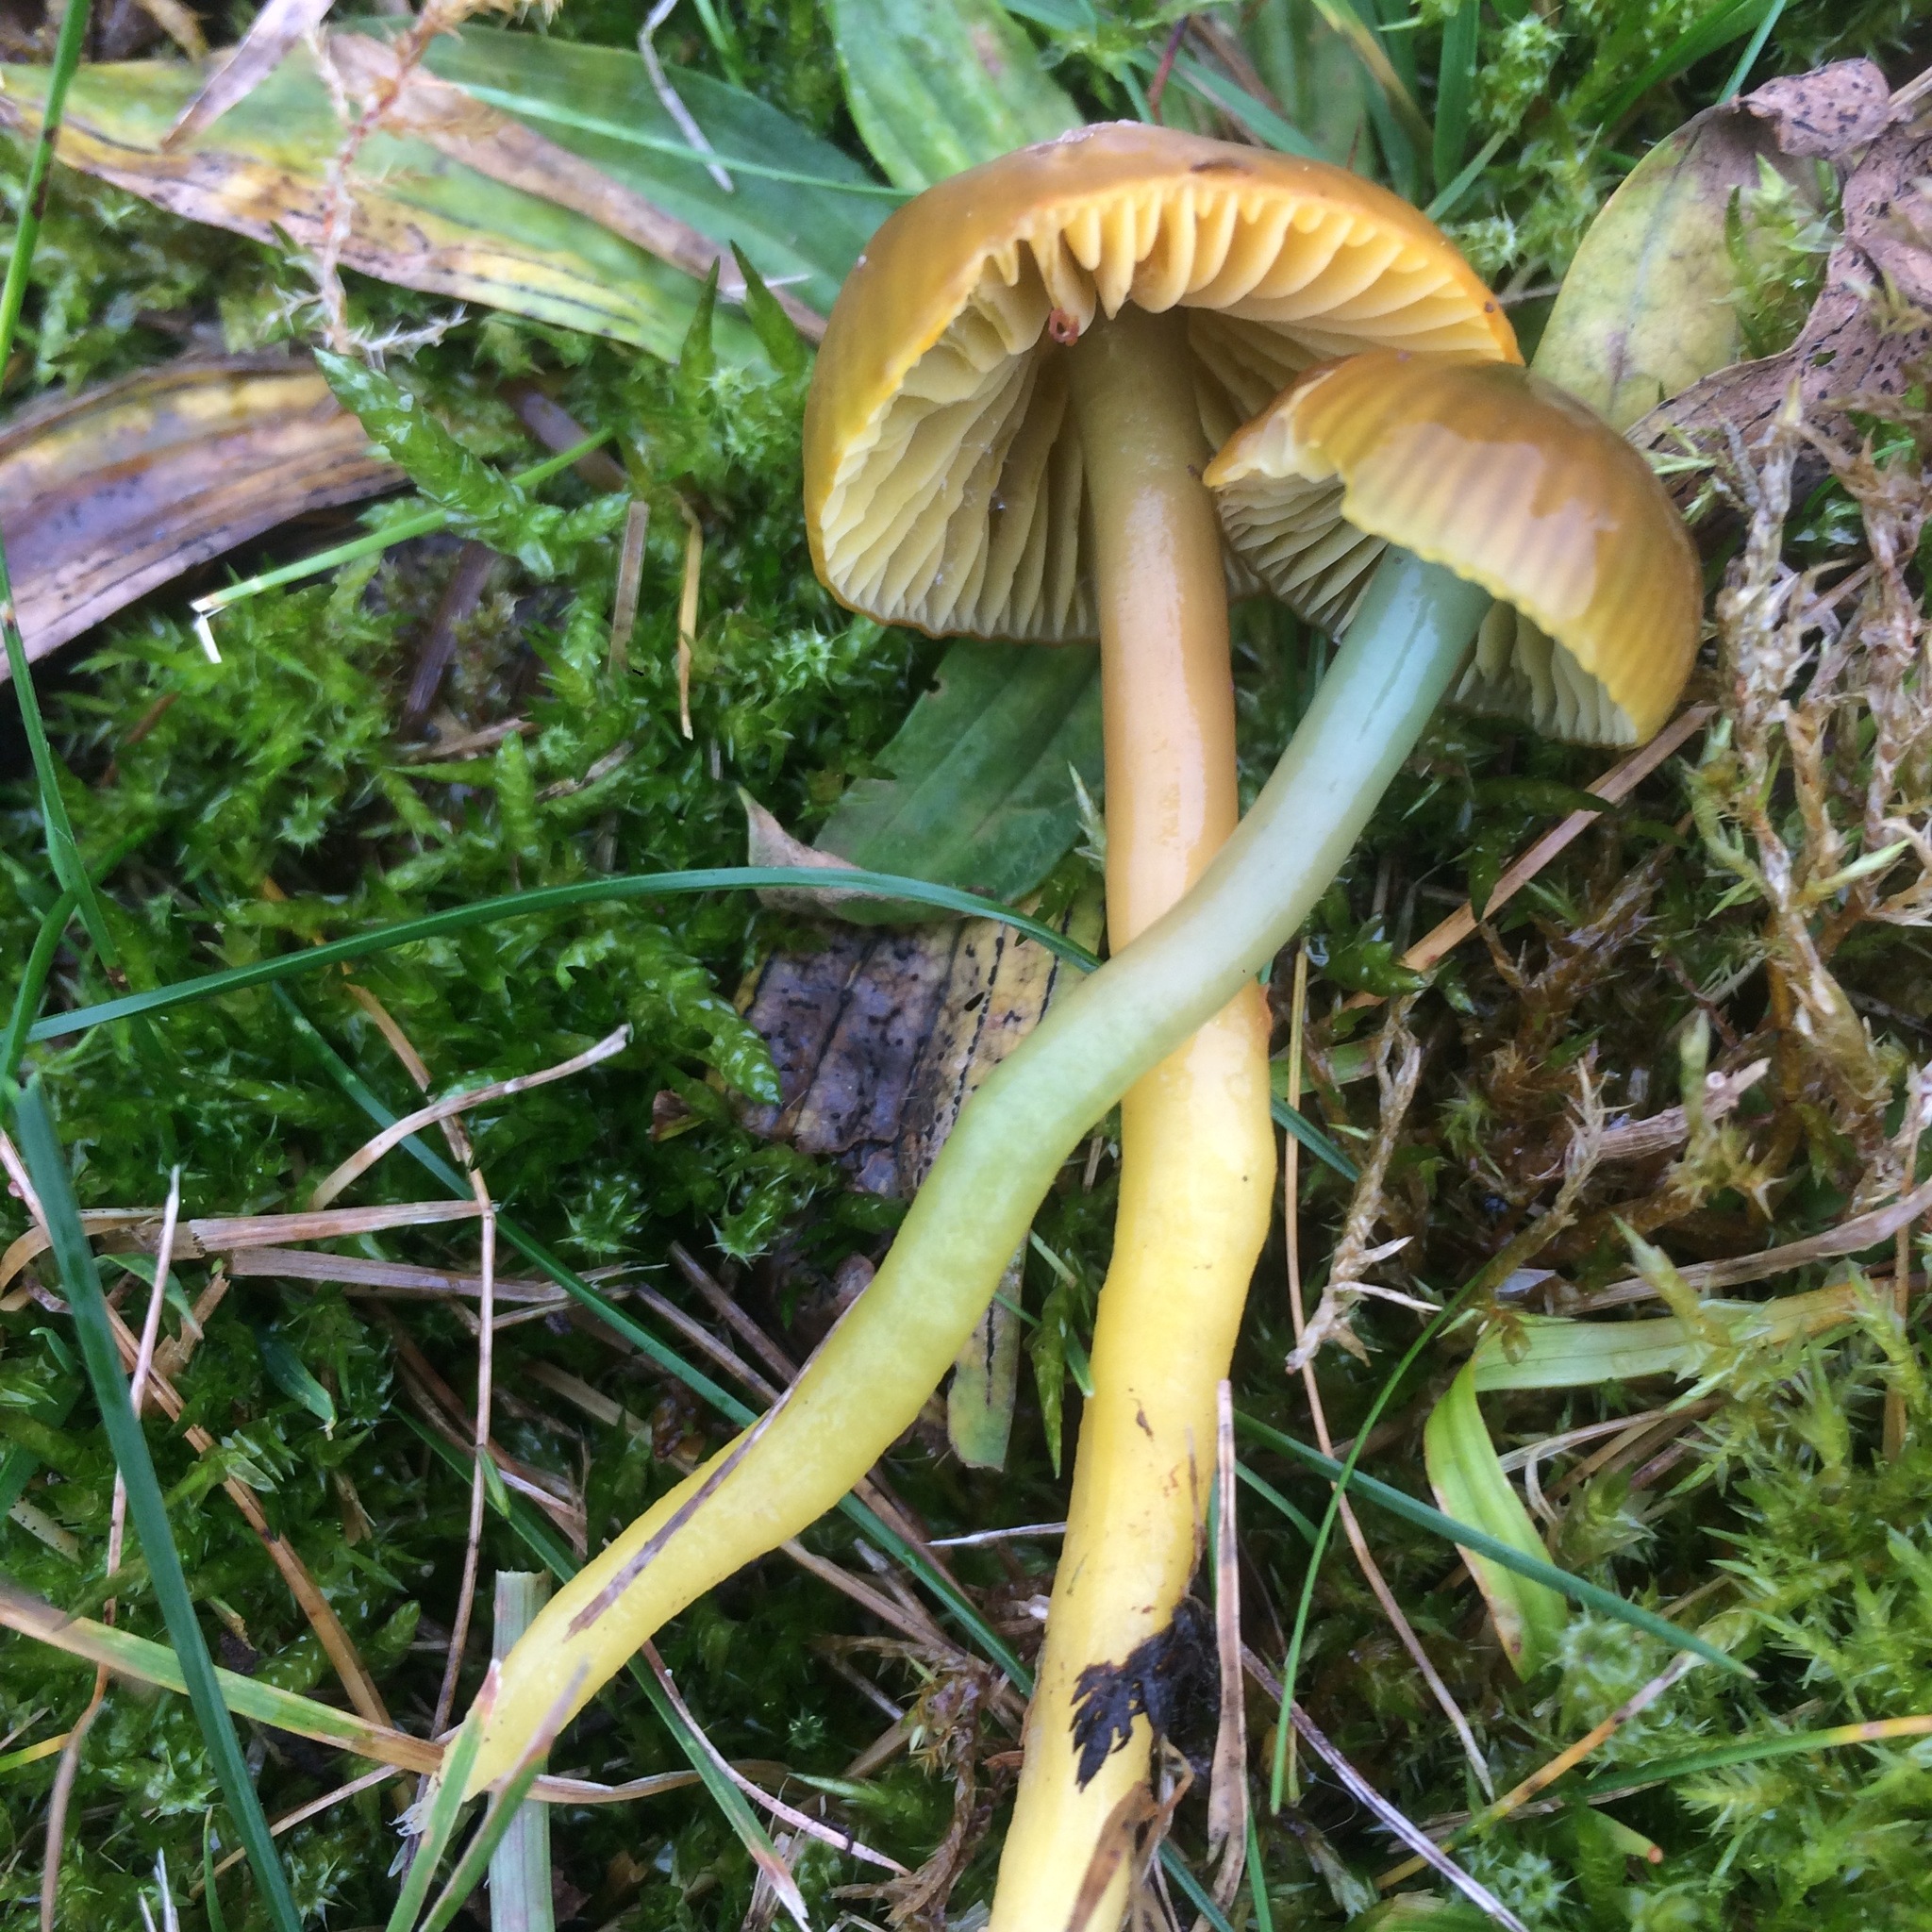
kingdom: Fungi
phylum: Basidiomycota
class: Agaricomycetes
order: Agaricales
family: Hygrophoraceae
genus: Gliophorus
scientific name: Gliophorus psittacinus
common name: Parrot wax-cap
